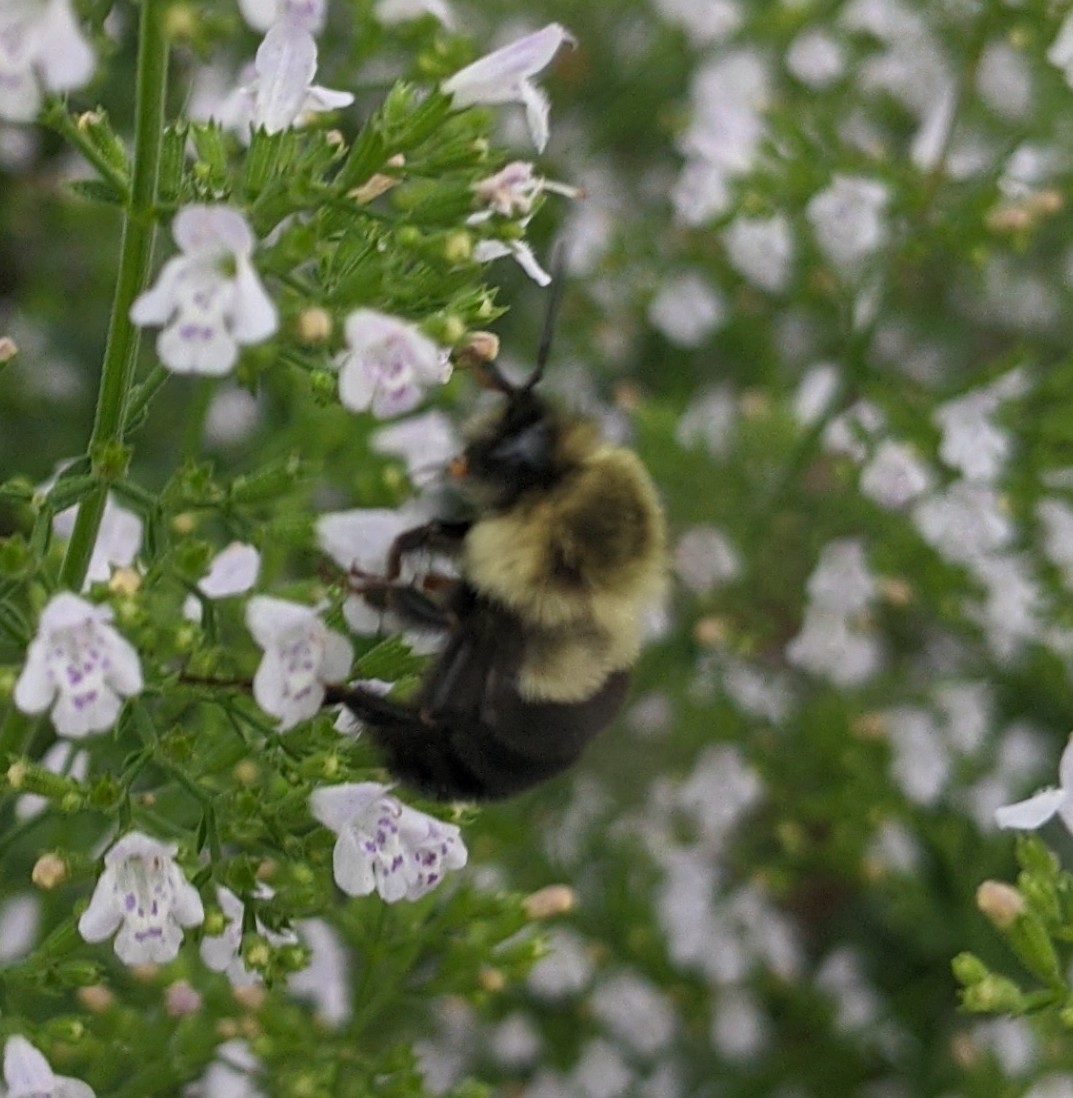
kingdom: Animalia
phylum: Arthropoda
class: Insecta
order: Hymenoptera
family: Apidae
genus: Bombus
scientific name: Bombus impatiens
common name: Common eastern bumble bee
